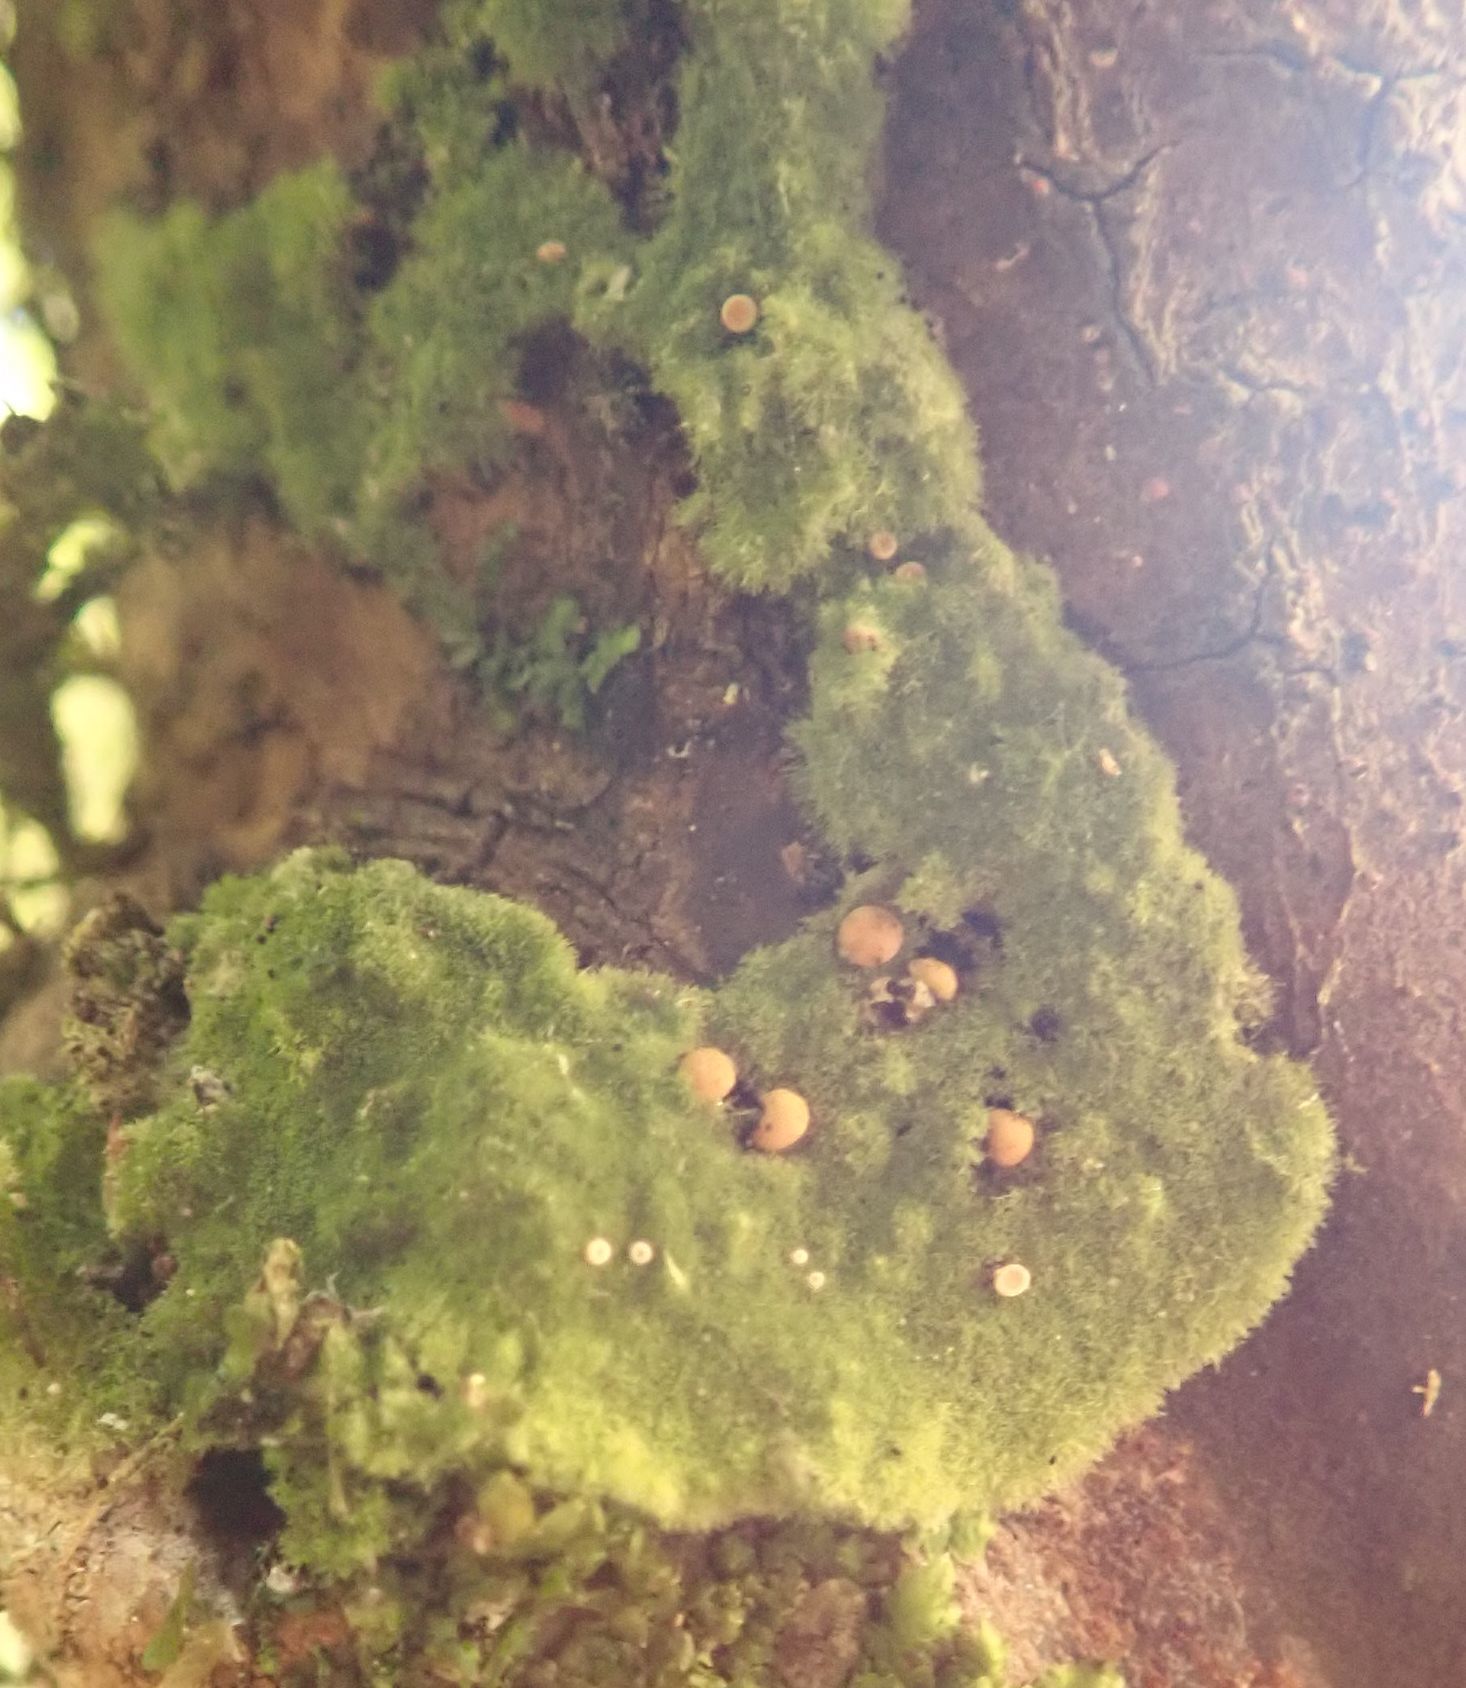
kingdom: Fungi
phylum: Ascomycota
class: Lecanoromycetes
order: Ostropales
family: Coenogoniaceae
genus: Coenogonium
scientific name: Coenogonium implexum
